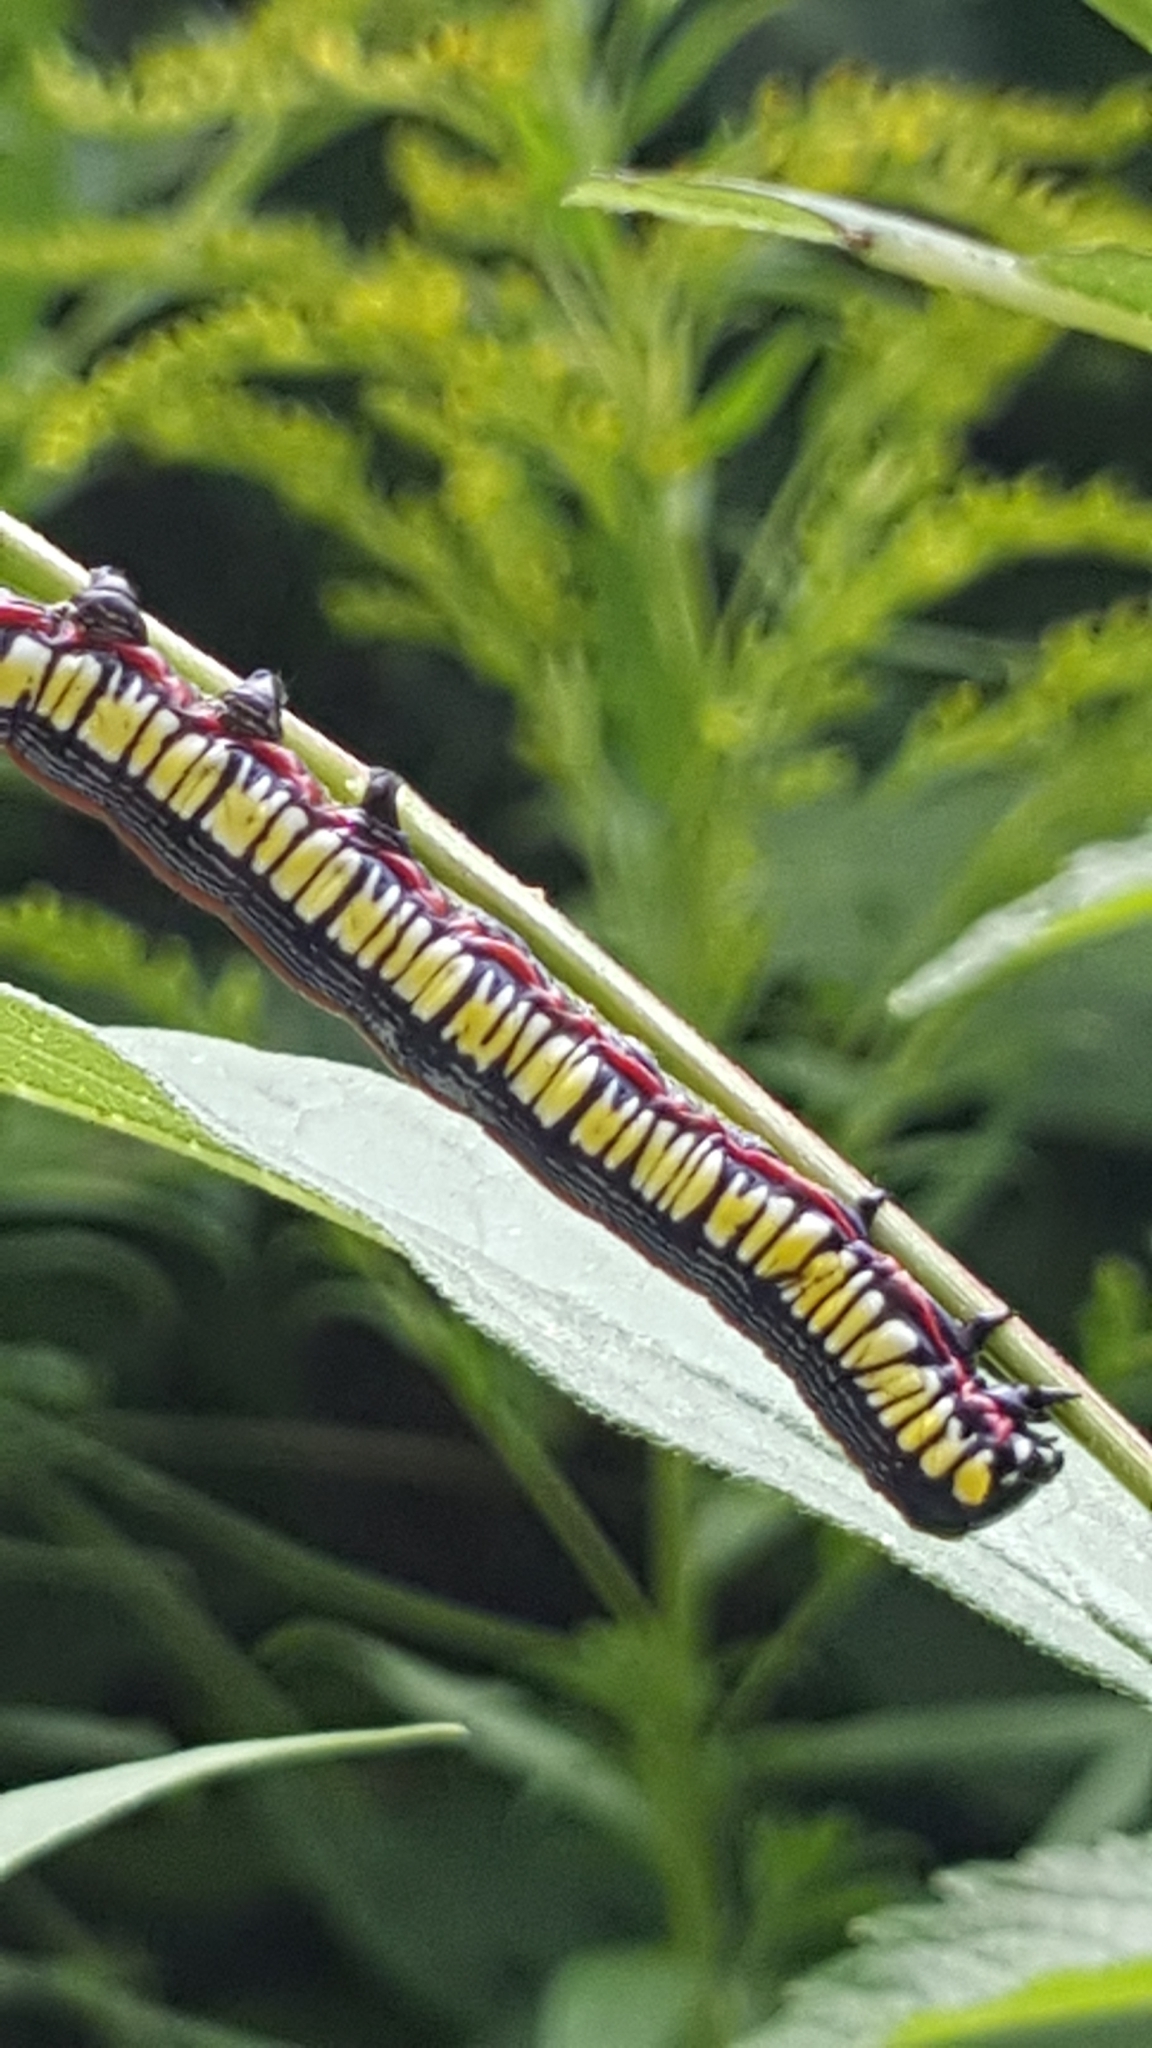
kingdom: Animalia
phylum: Arthropoda
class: Insecta
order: Lepidoptera
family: Noctuidae
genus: Cucullia
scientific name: Cucullia convexipennis
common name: Brown-hooded owlet
